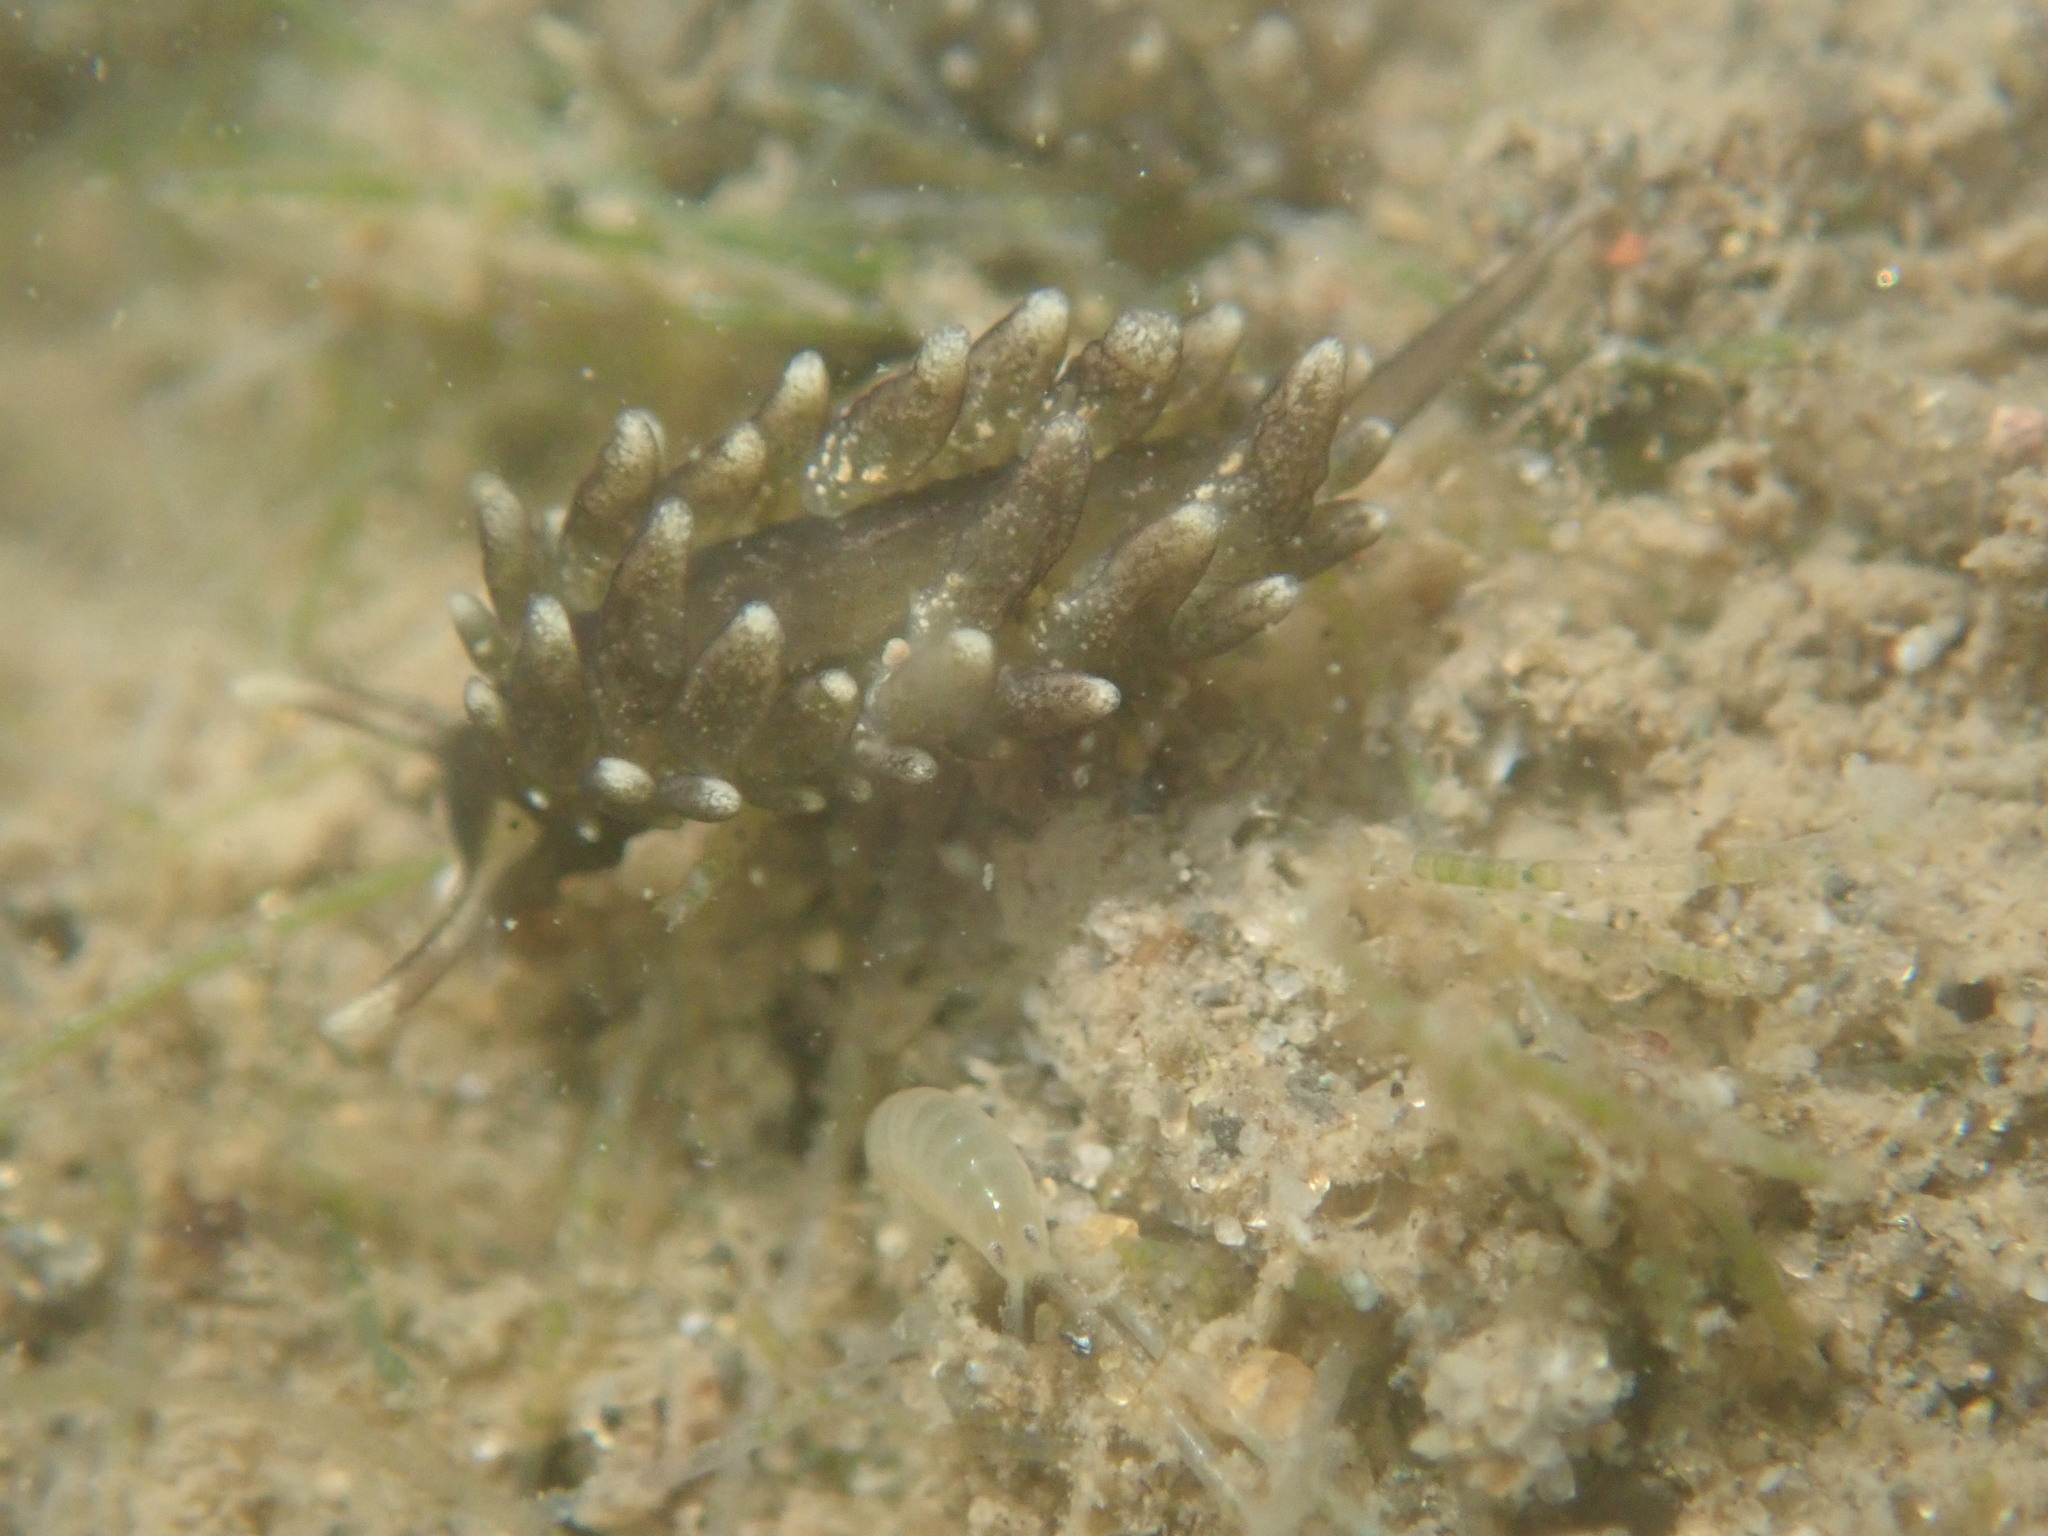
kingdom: Animalia
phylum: Mollusca
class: Gastropoda
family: Hermaeidae
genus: Aplysiopsis
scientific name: Aplysiopsis enteromorphae
